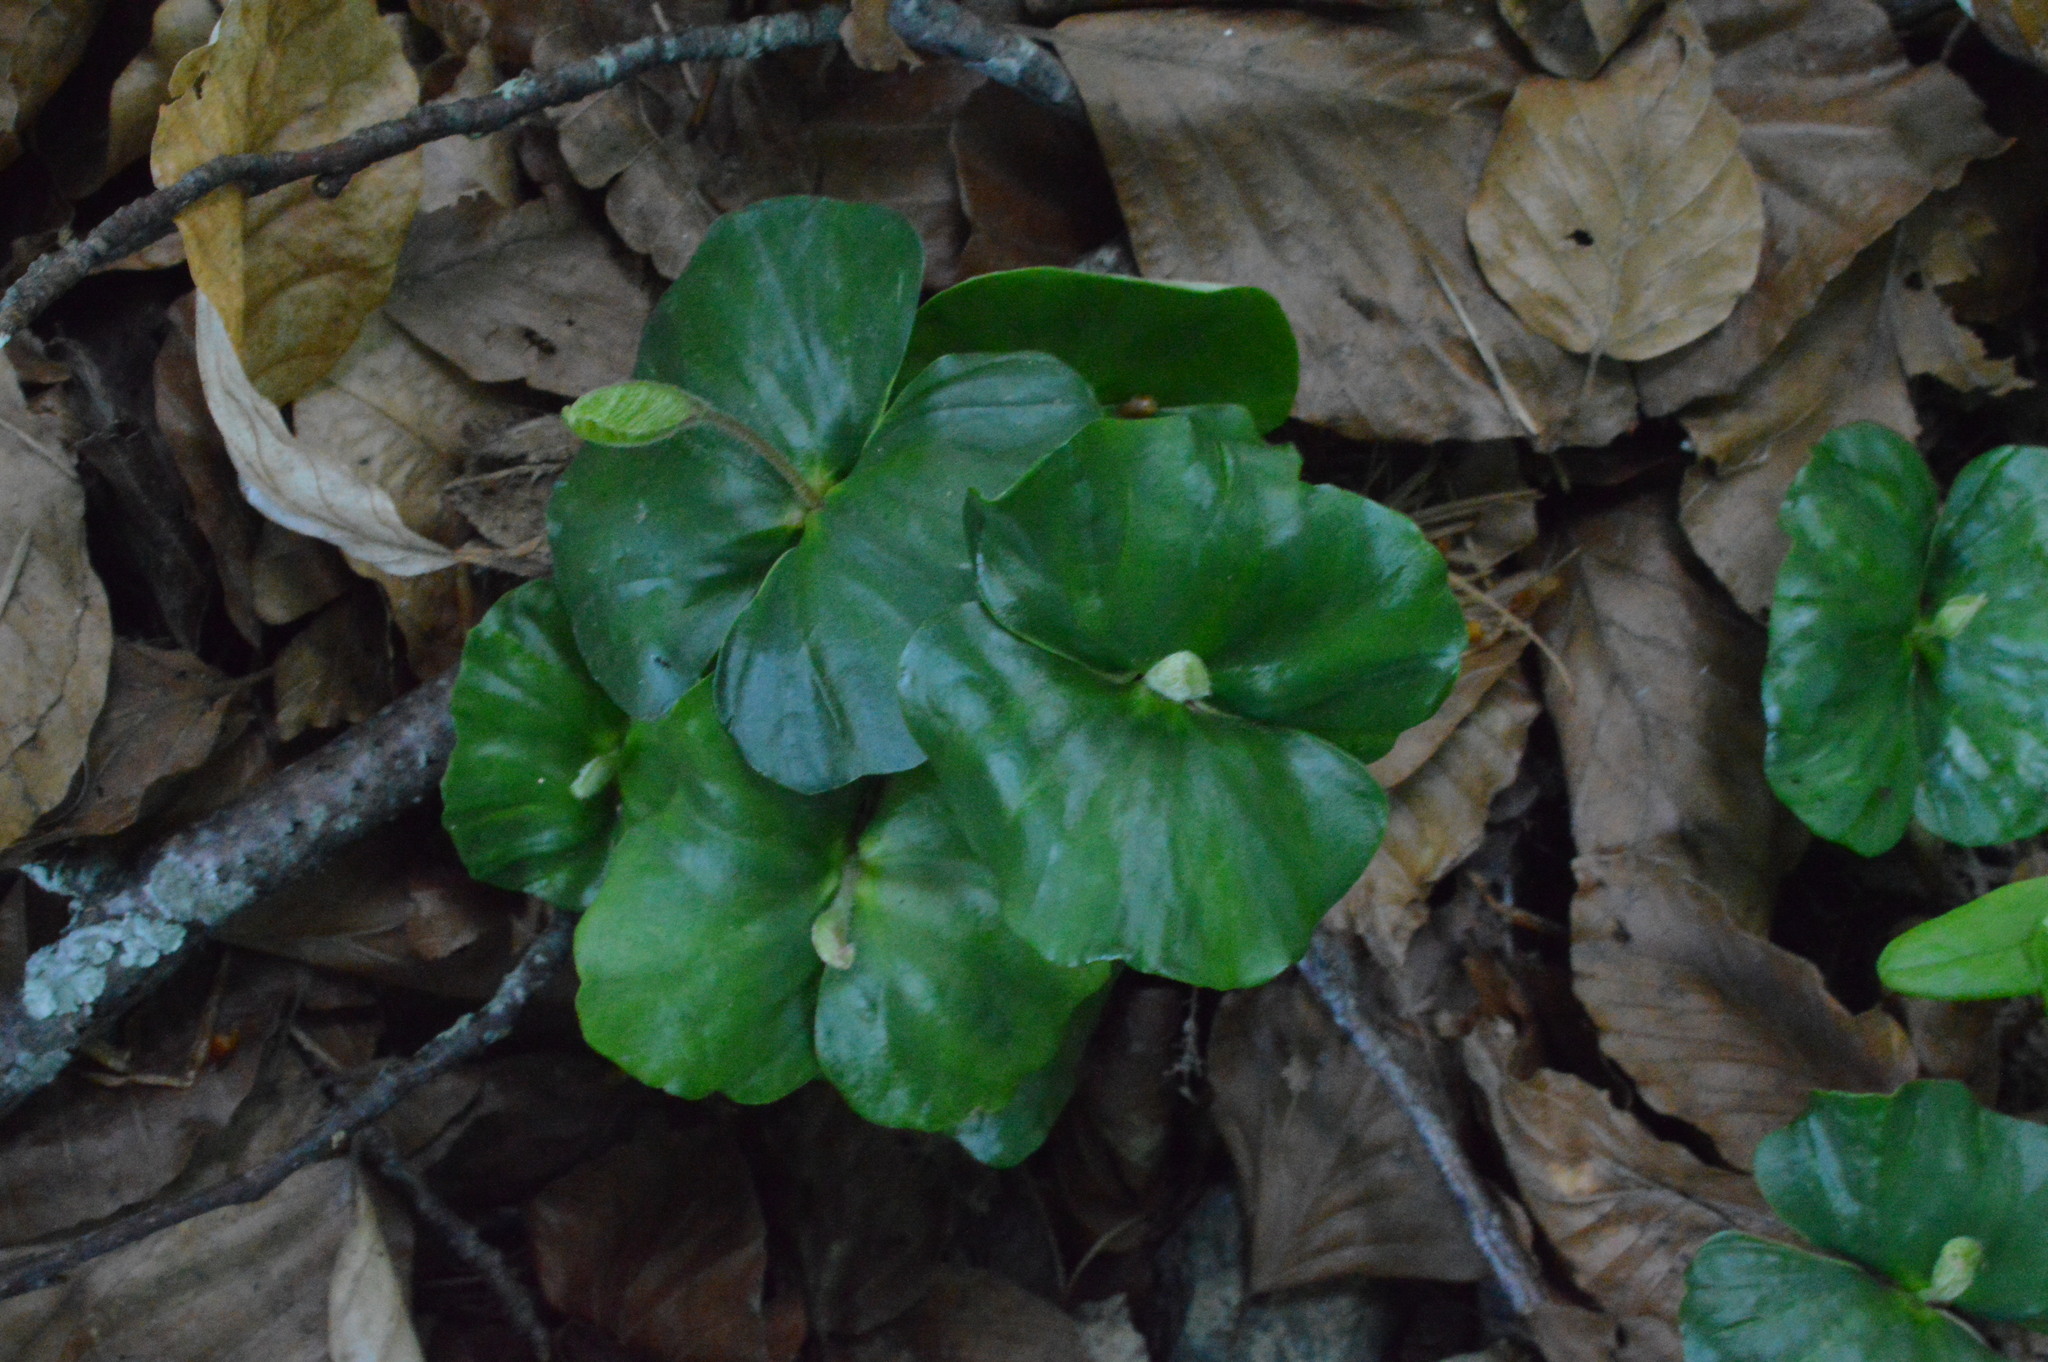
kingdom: Plantae
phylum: Tracheophyta
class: Magnoliopsida
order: Fagales
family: Fagaceae
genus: Fagus
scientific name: Fagus sylvatica
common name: Beech
